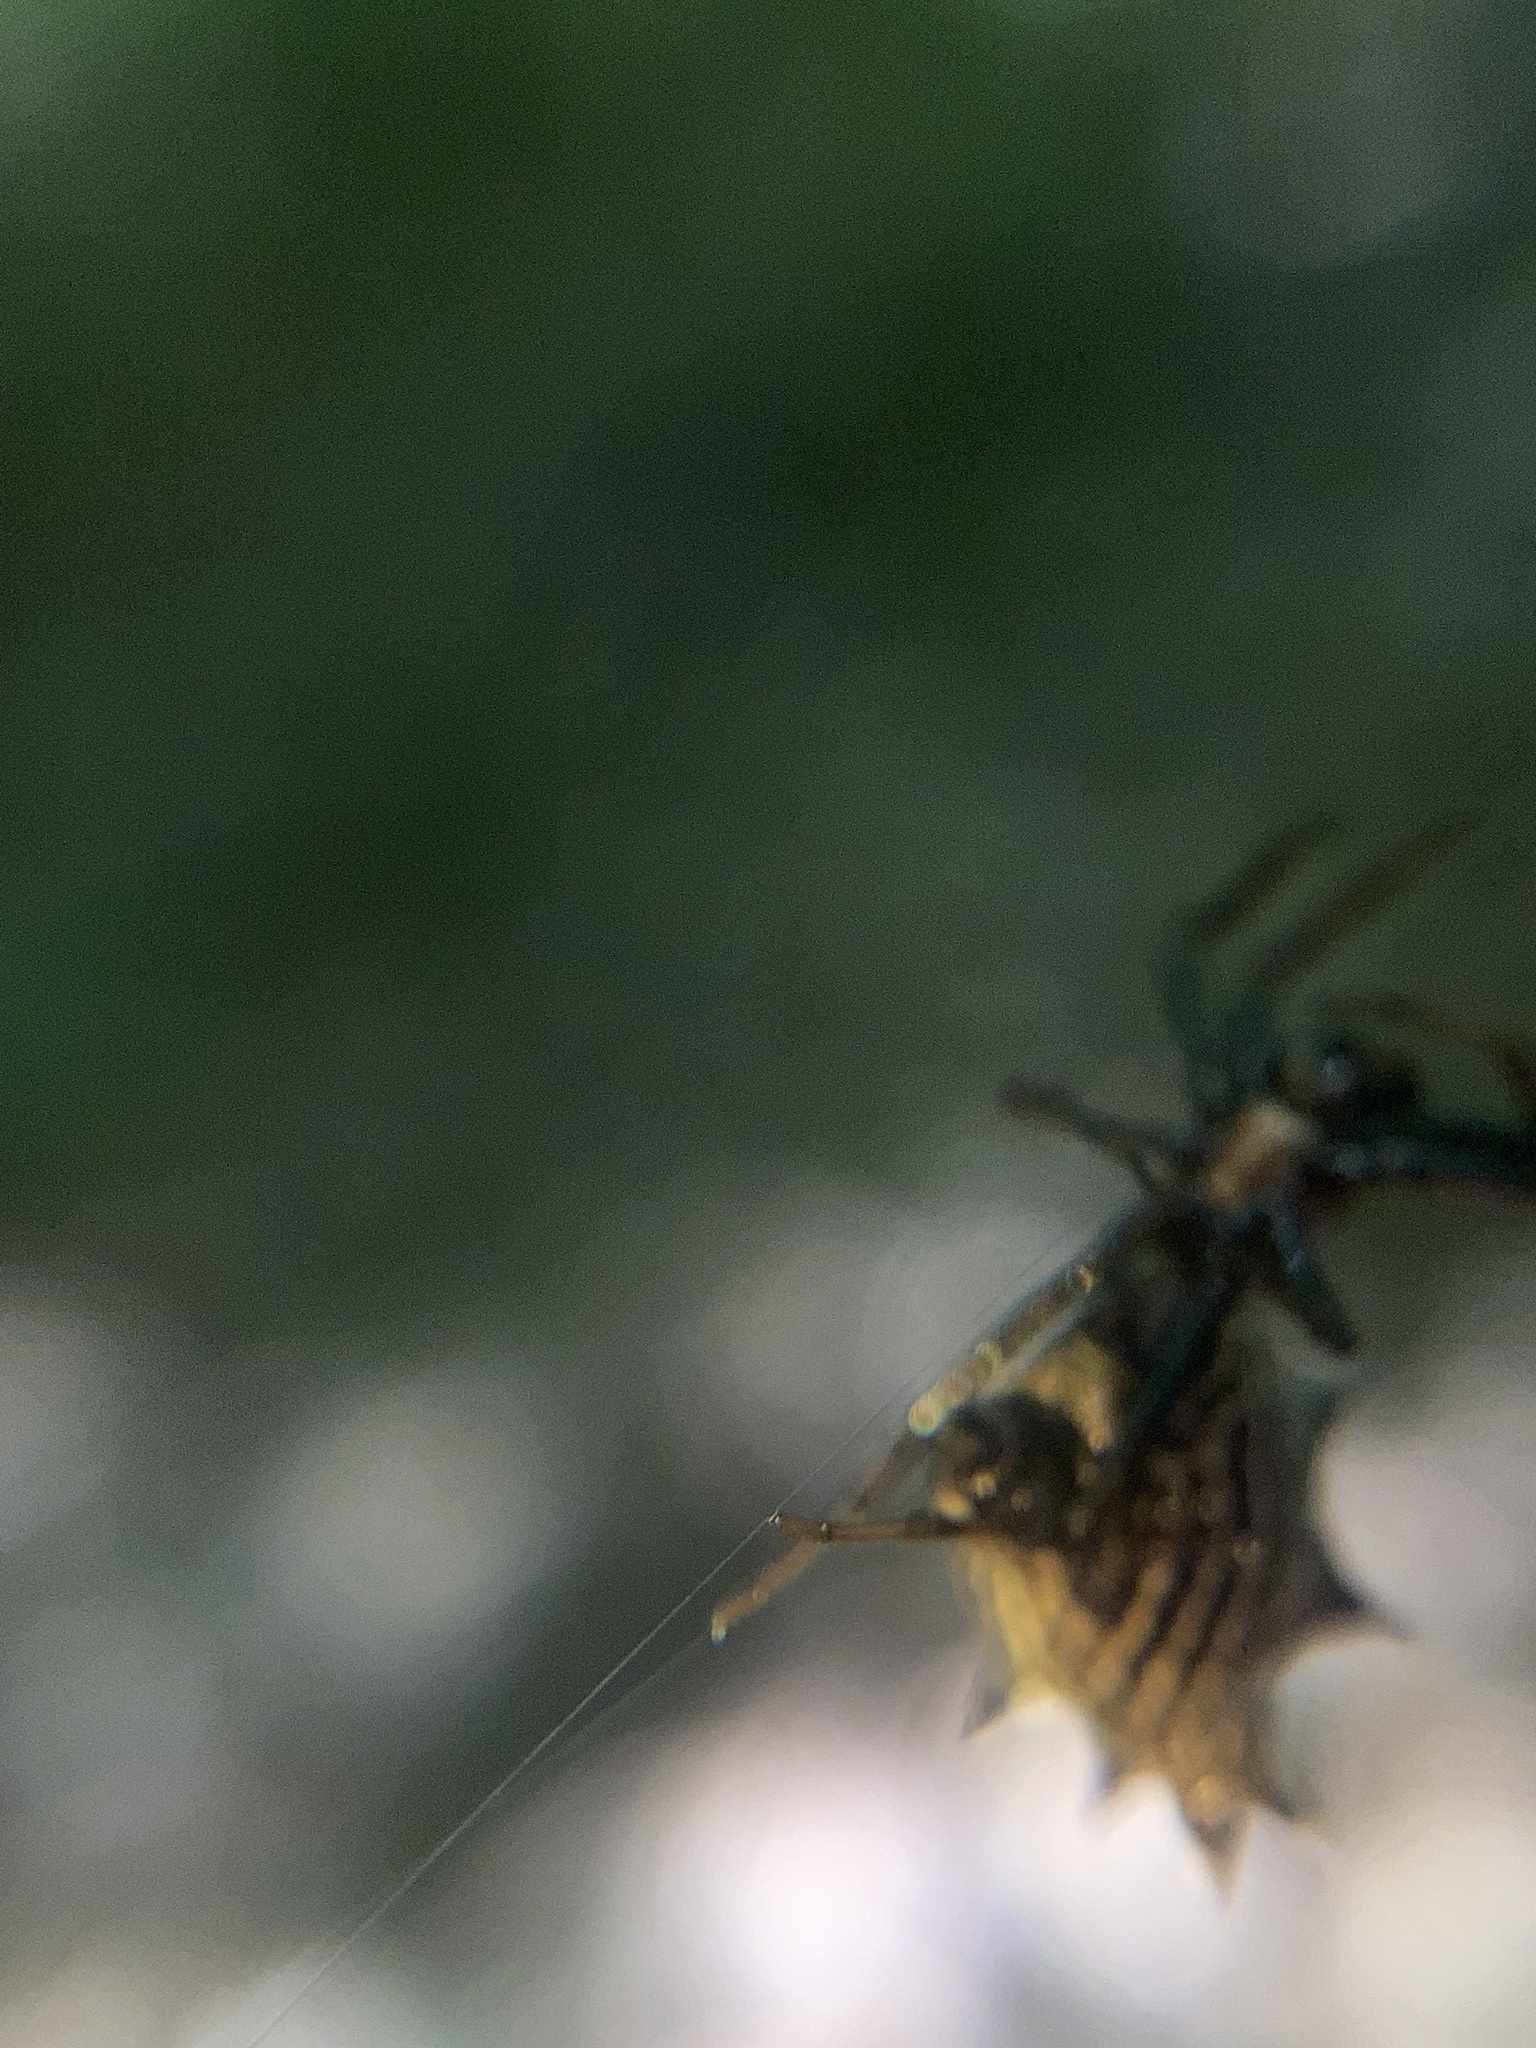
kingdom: Animalia
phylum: Arthropoda
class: Arachnida
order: Araneae
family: Araneidae
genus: Micrathena
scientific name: Micrathena gracilis
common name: Orb weavers
